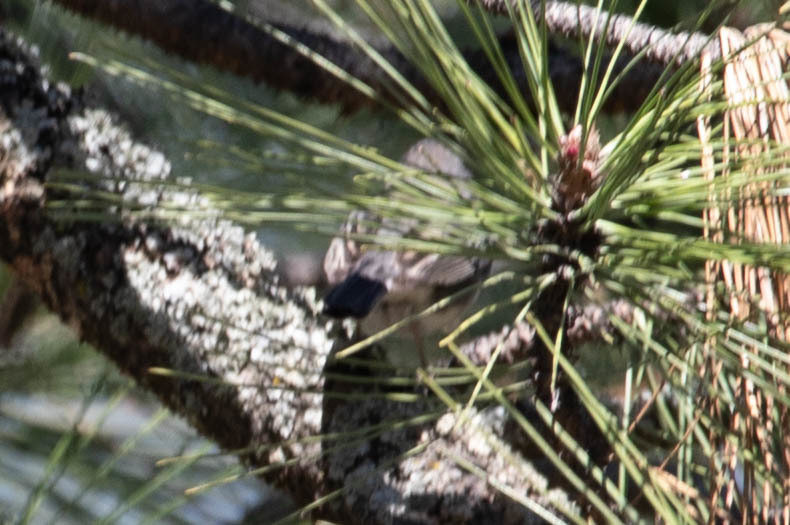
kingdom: Animalia
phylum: Chordata
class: Aves
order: Passeriformes
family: Regulidae
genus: Regulus
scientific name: Regulus calendula
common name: Ruby-crowned kinglet
